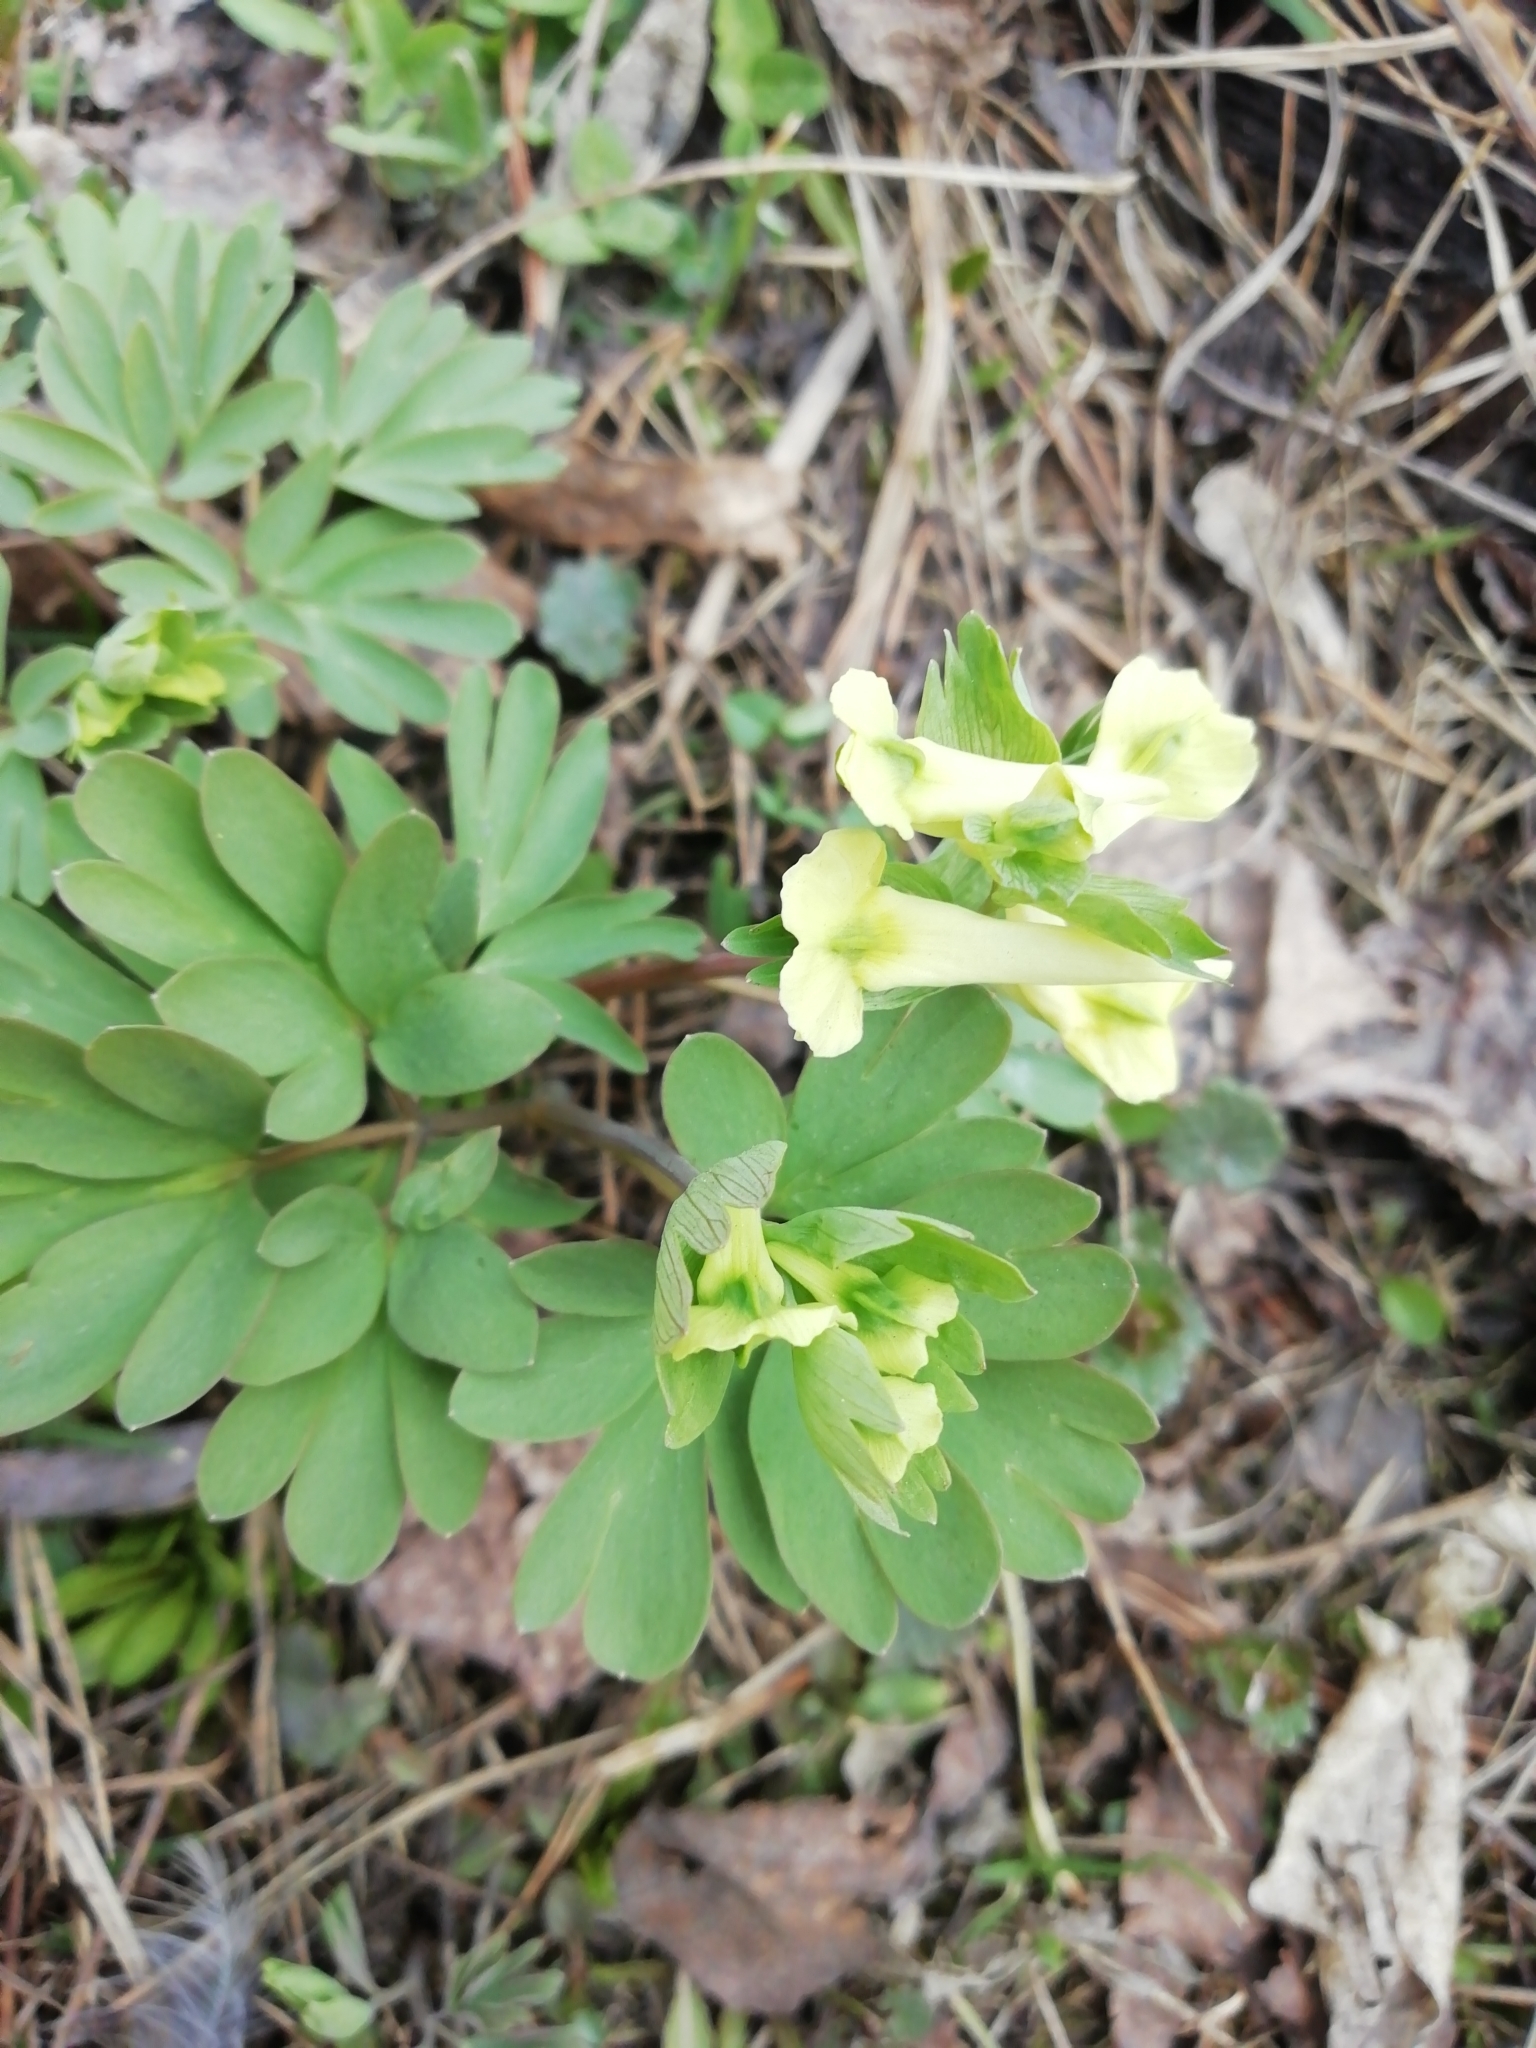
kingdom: Plantae
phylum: Tracheophyta
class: Magnoliopsida
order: Ranunculales
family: Papaveraceae
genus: Corydalis
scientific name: Corydalis bracteata
